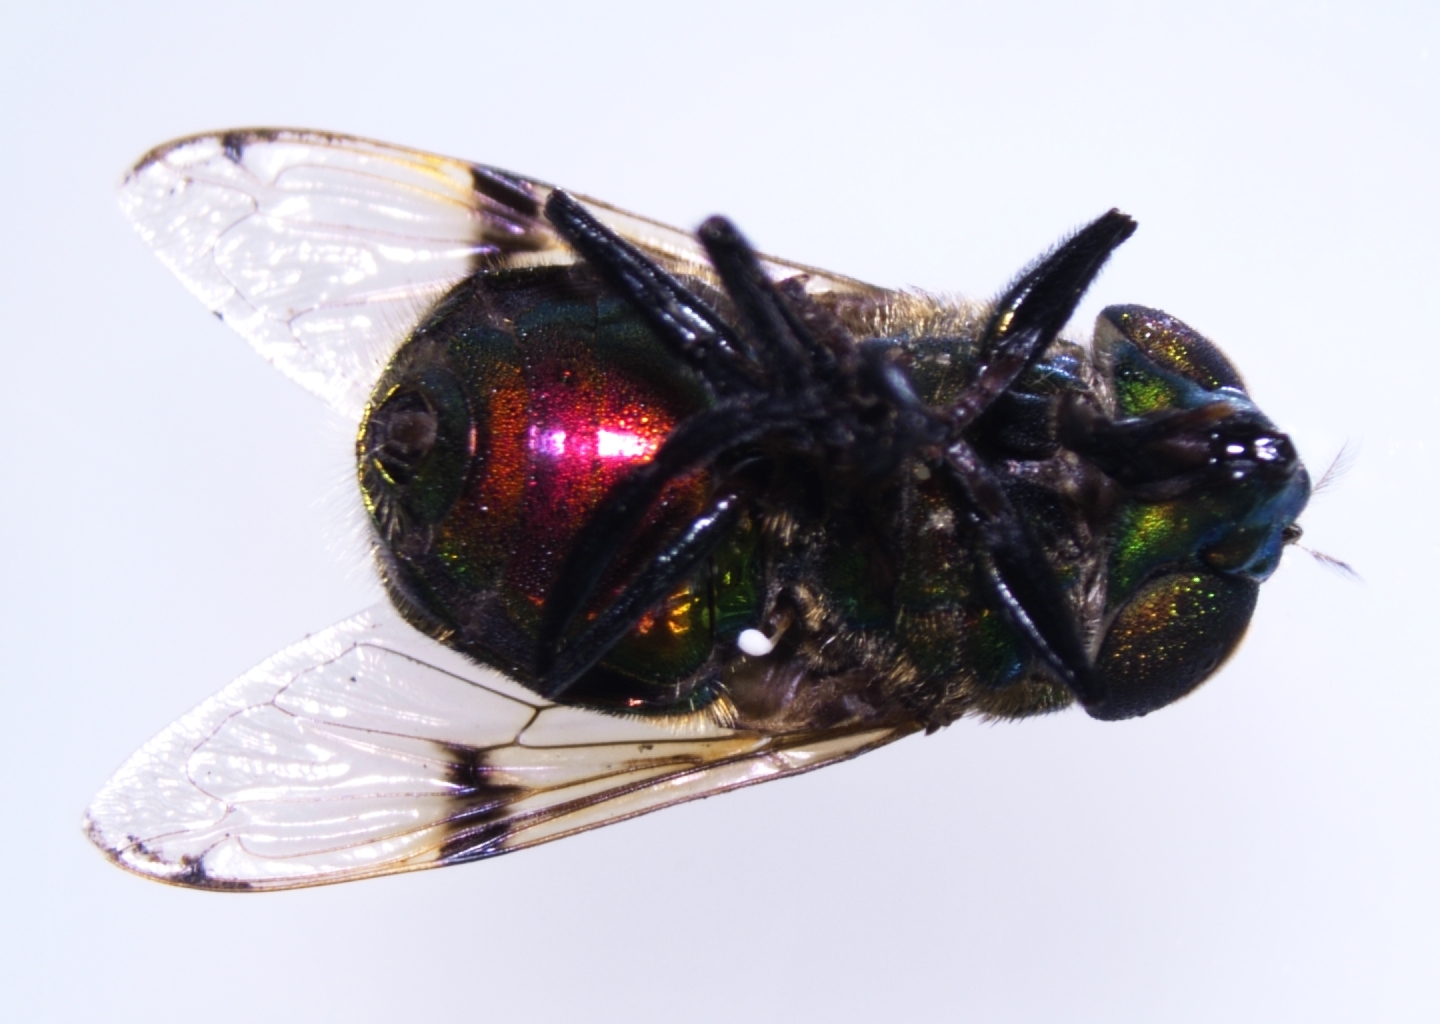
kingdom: Animalia
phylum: Arthropoda
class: Insecta
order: Diptera
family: Syrphidae
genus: Ornidia
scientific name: Ornidia obesa
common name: Syrphid fly
